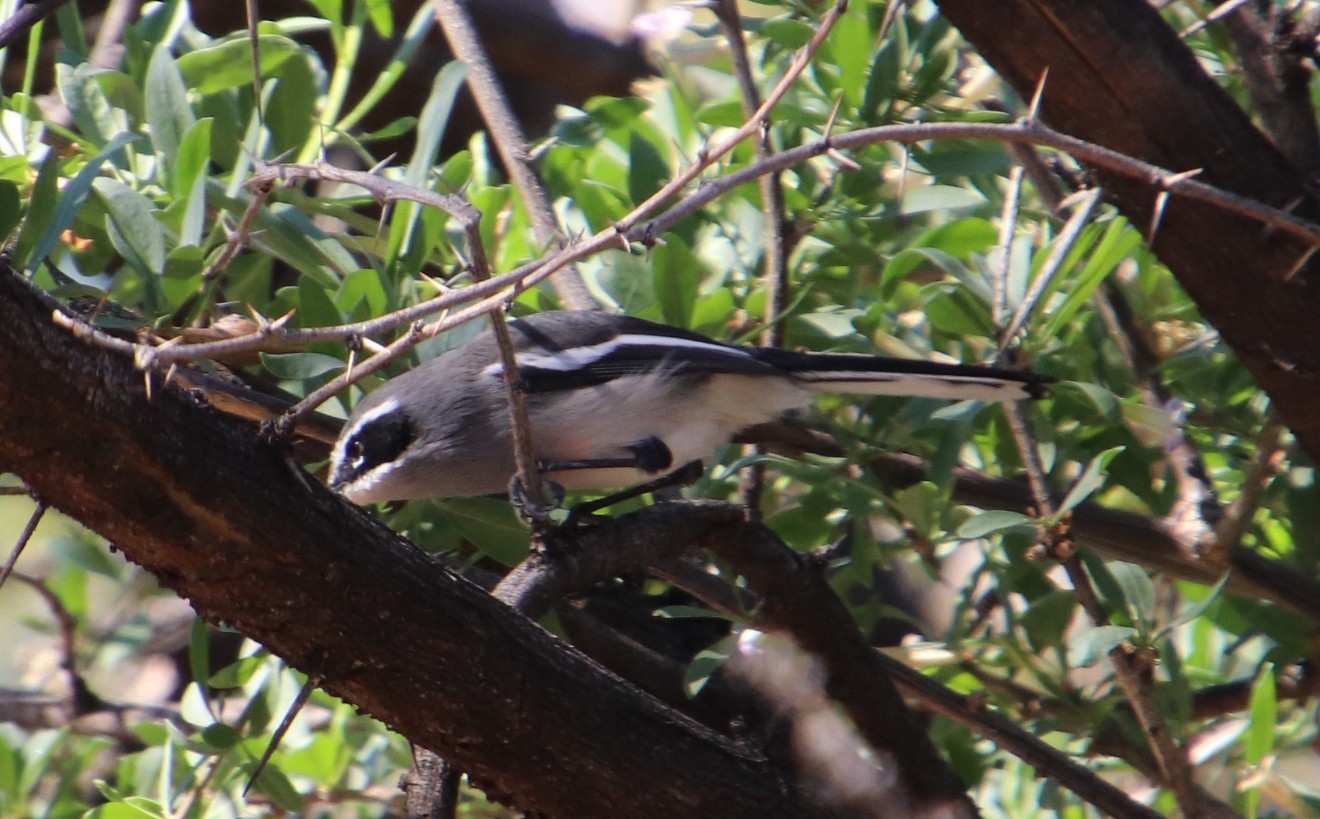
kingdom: Animalia
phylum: Chordata
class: Aves
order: Passeriformes
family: Stenostiridae
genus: Stenostira
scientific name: Stenostira scita
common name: Fairy flycatcher
